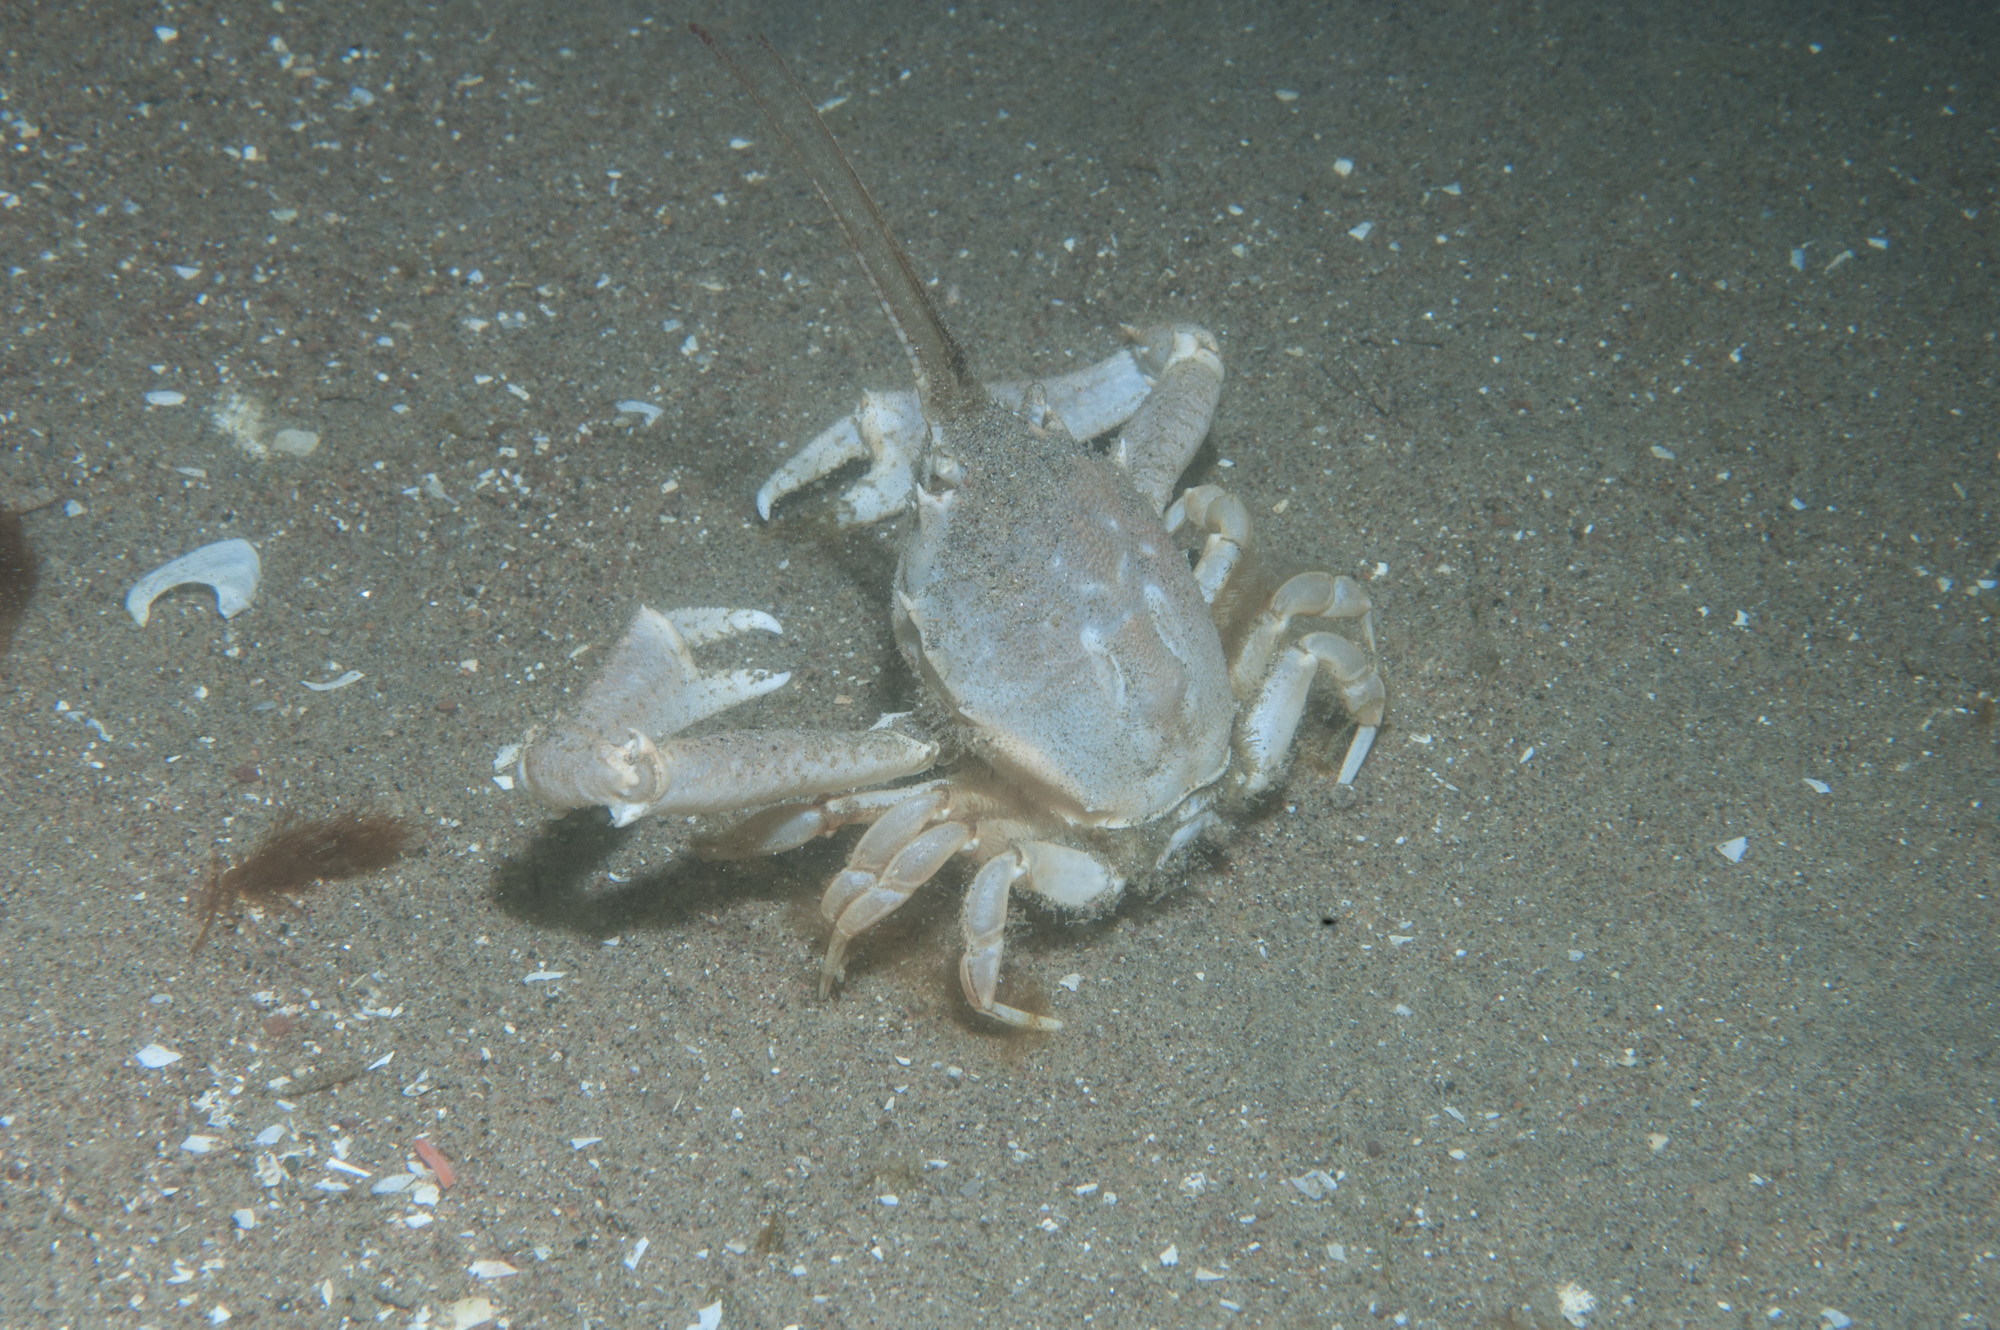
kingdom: Animalia
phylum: Arthropoda
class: Malacostraca
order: Decapoda
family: Corystidae
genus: Corystes
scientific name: Corystes cassivelaunus
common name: Masked crab
